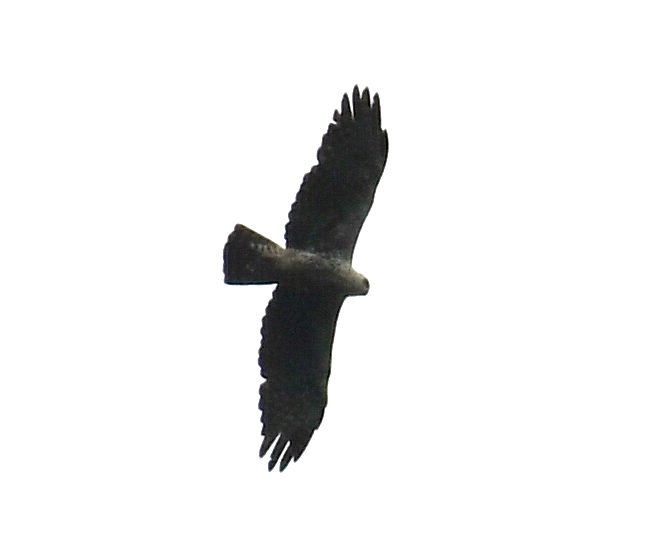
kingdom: Animalia
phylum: Chordata
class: Aves
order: Accipitriformes
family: Accipitridae
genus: Hieraaetus
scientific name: Hieraaetus ayresii
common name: Ayres's hawk-eagle
